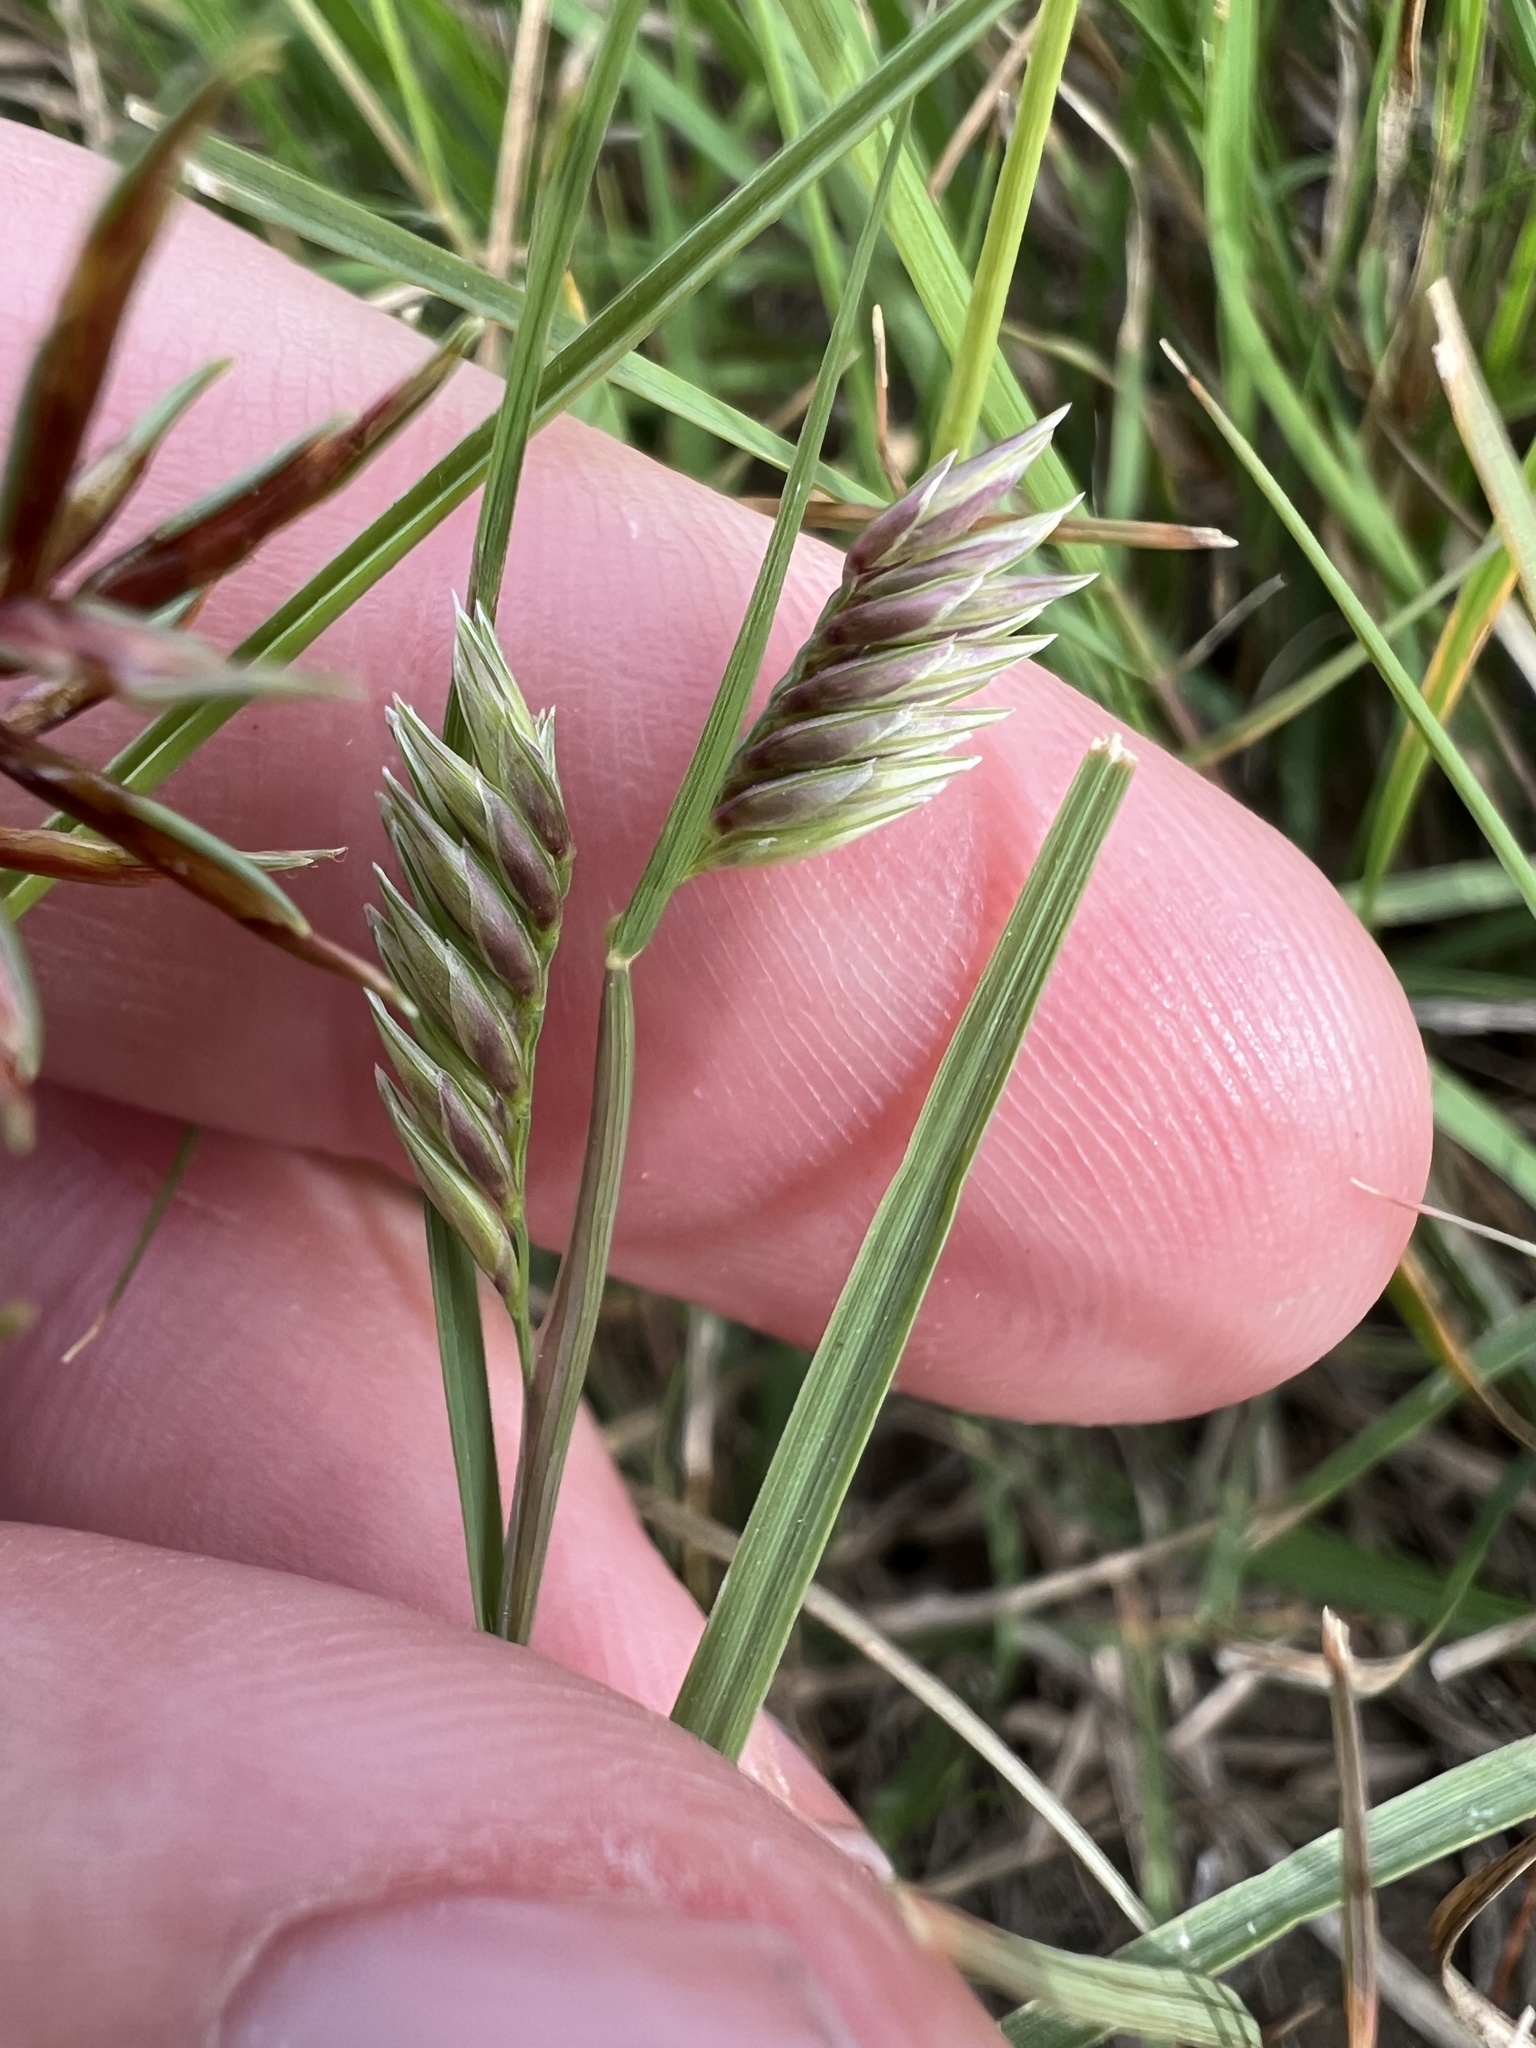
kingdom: Plantae
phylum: Tracheophyta
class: Liliopsida
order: Poales
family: Poaceae
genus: Bouteloua
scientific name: Bouteloua dactyloides
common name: Buffalo grass
